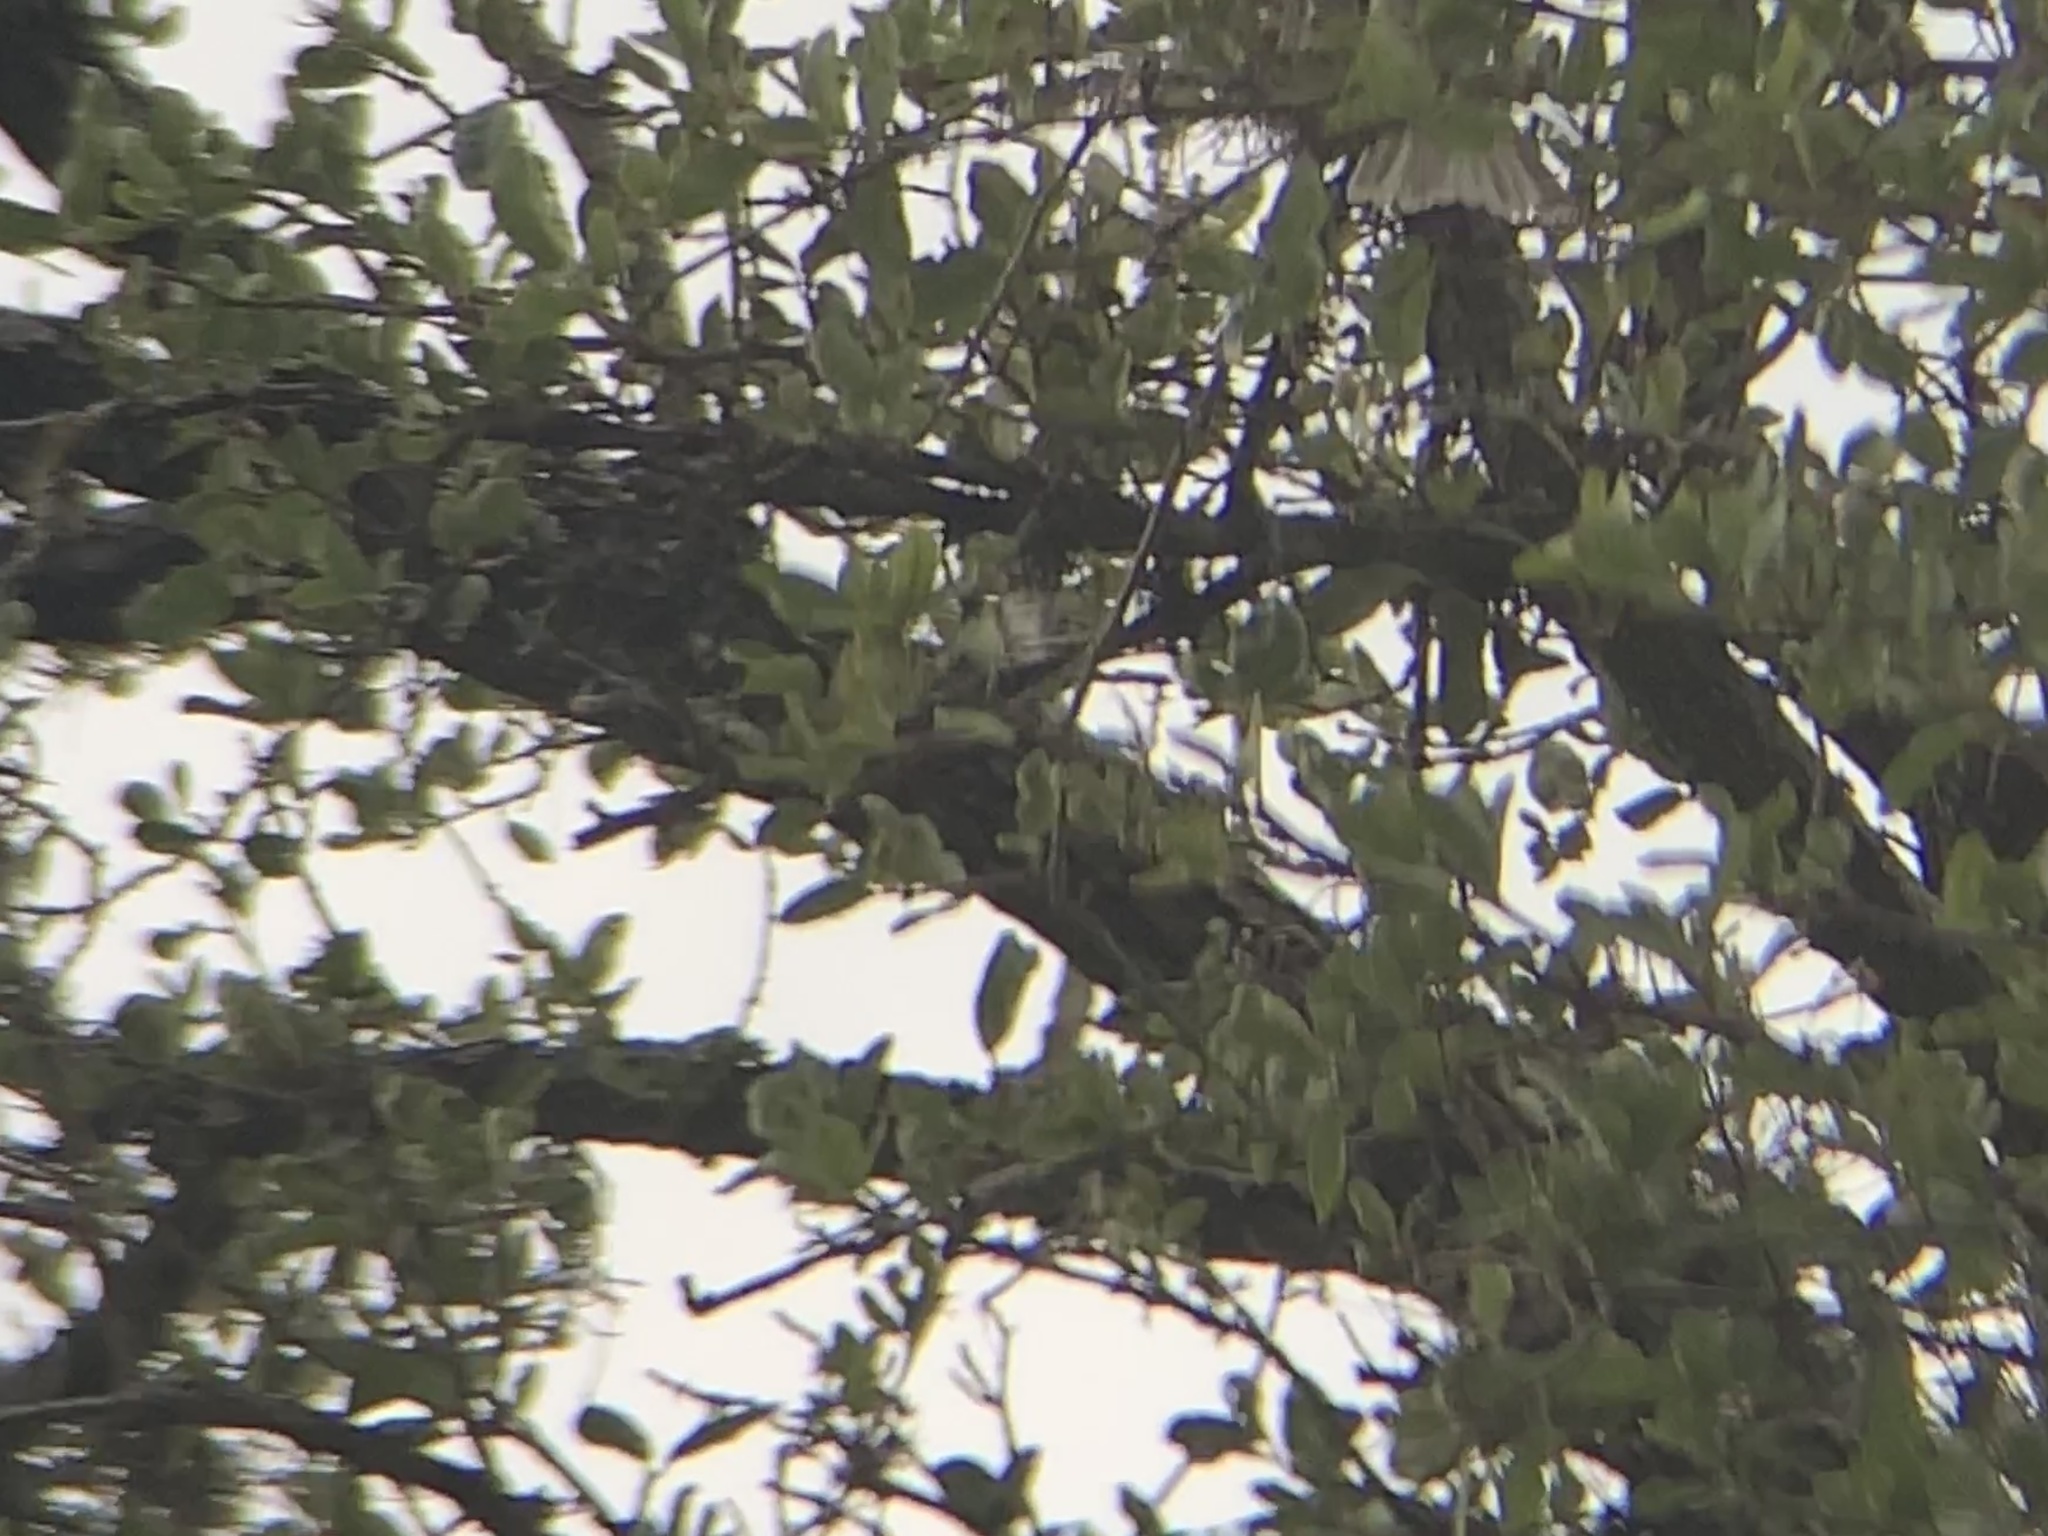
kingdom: Animalia
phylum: Chordata
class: Aves
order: Passeriformes
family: Paridae
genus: Baeolophus
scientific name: Baeolophus atricristatus
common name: Black-crested titmouse
